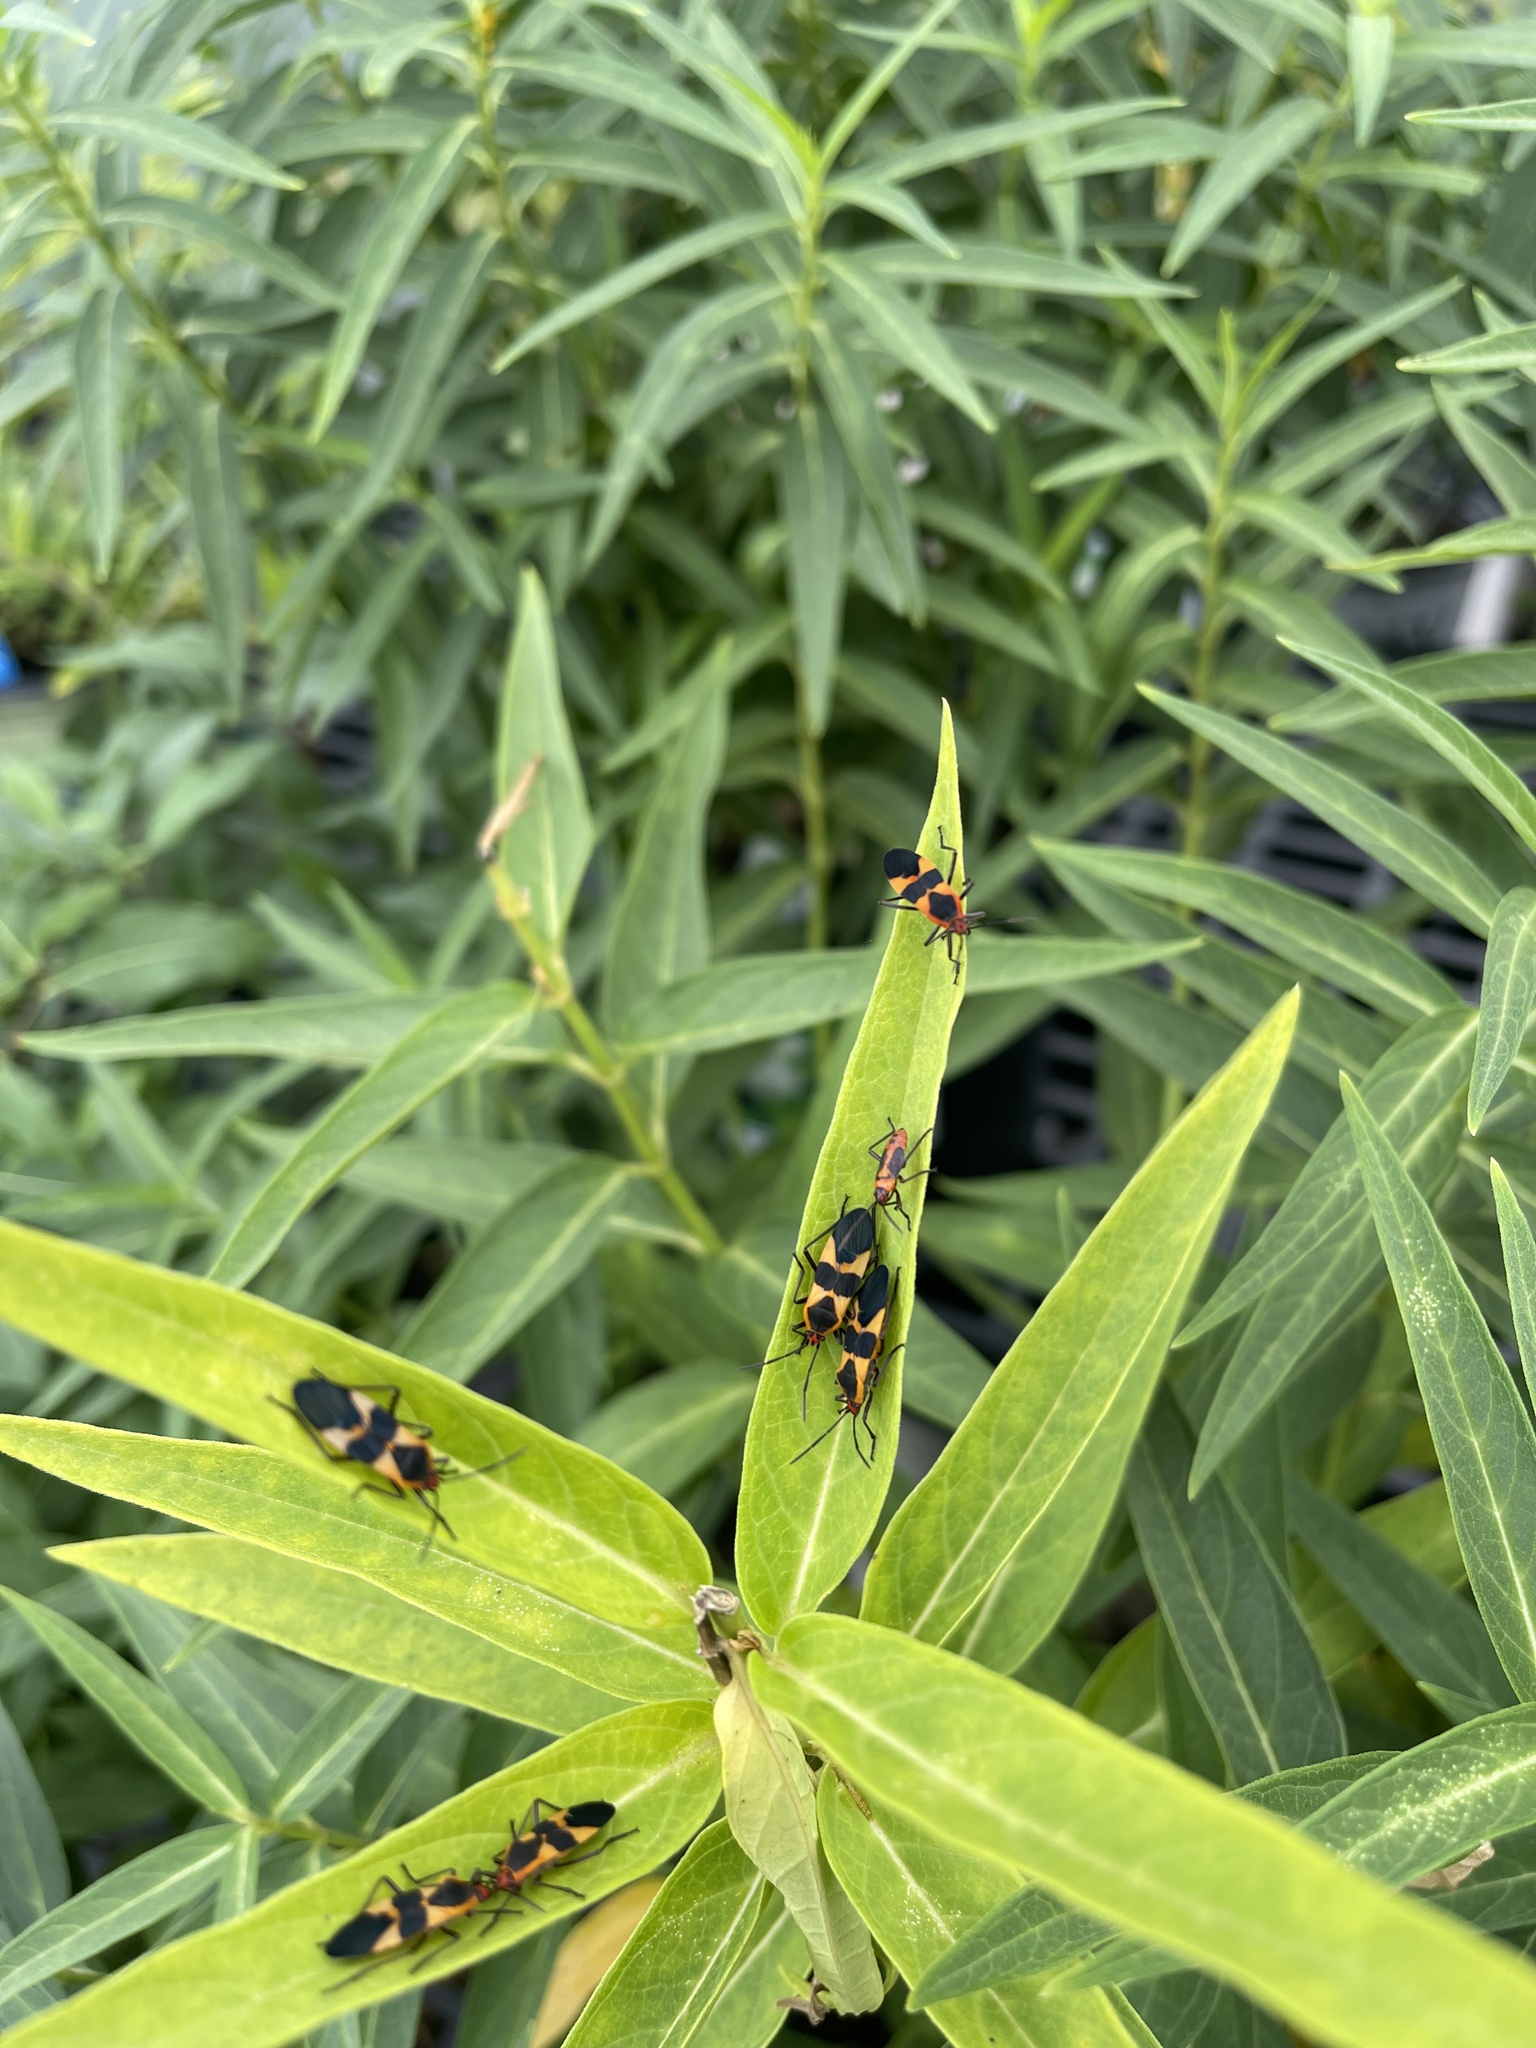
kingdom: Animalia
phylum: Arthropoda
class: Insecta
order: Hemiptera
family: Lygaeidae
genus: Oncopeltus
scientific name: Oncopeltus fasciatus
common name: Large milkweed bug
